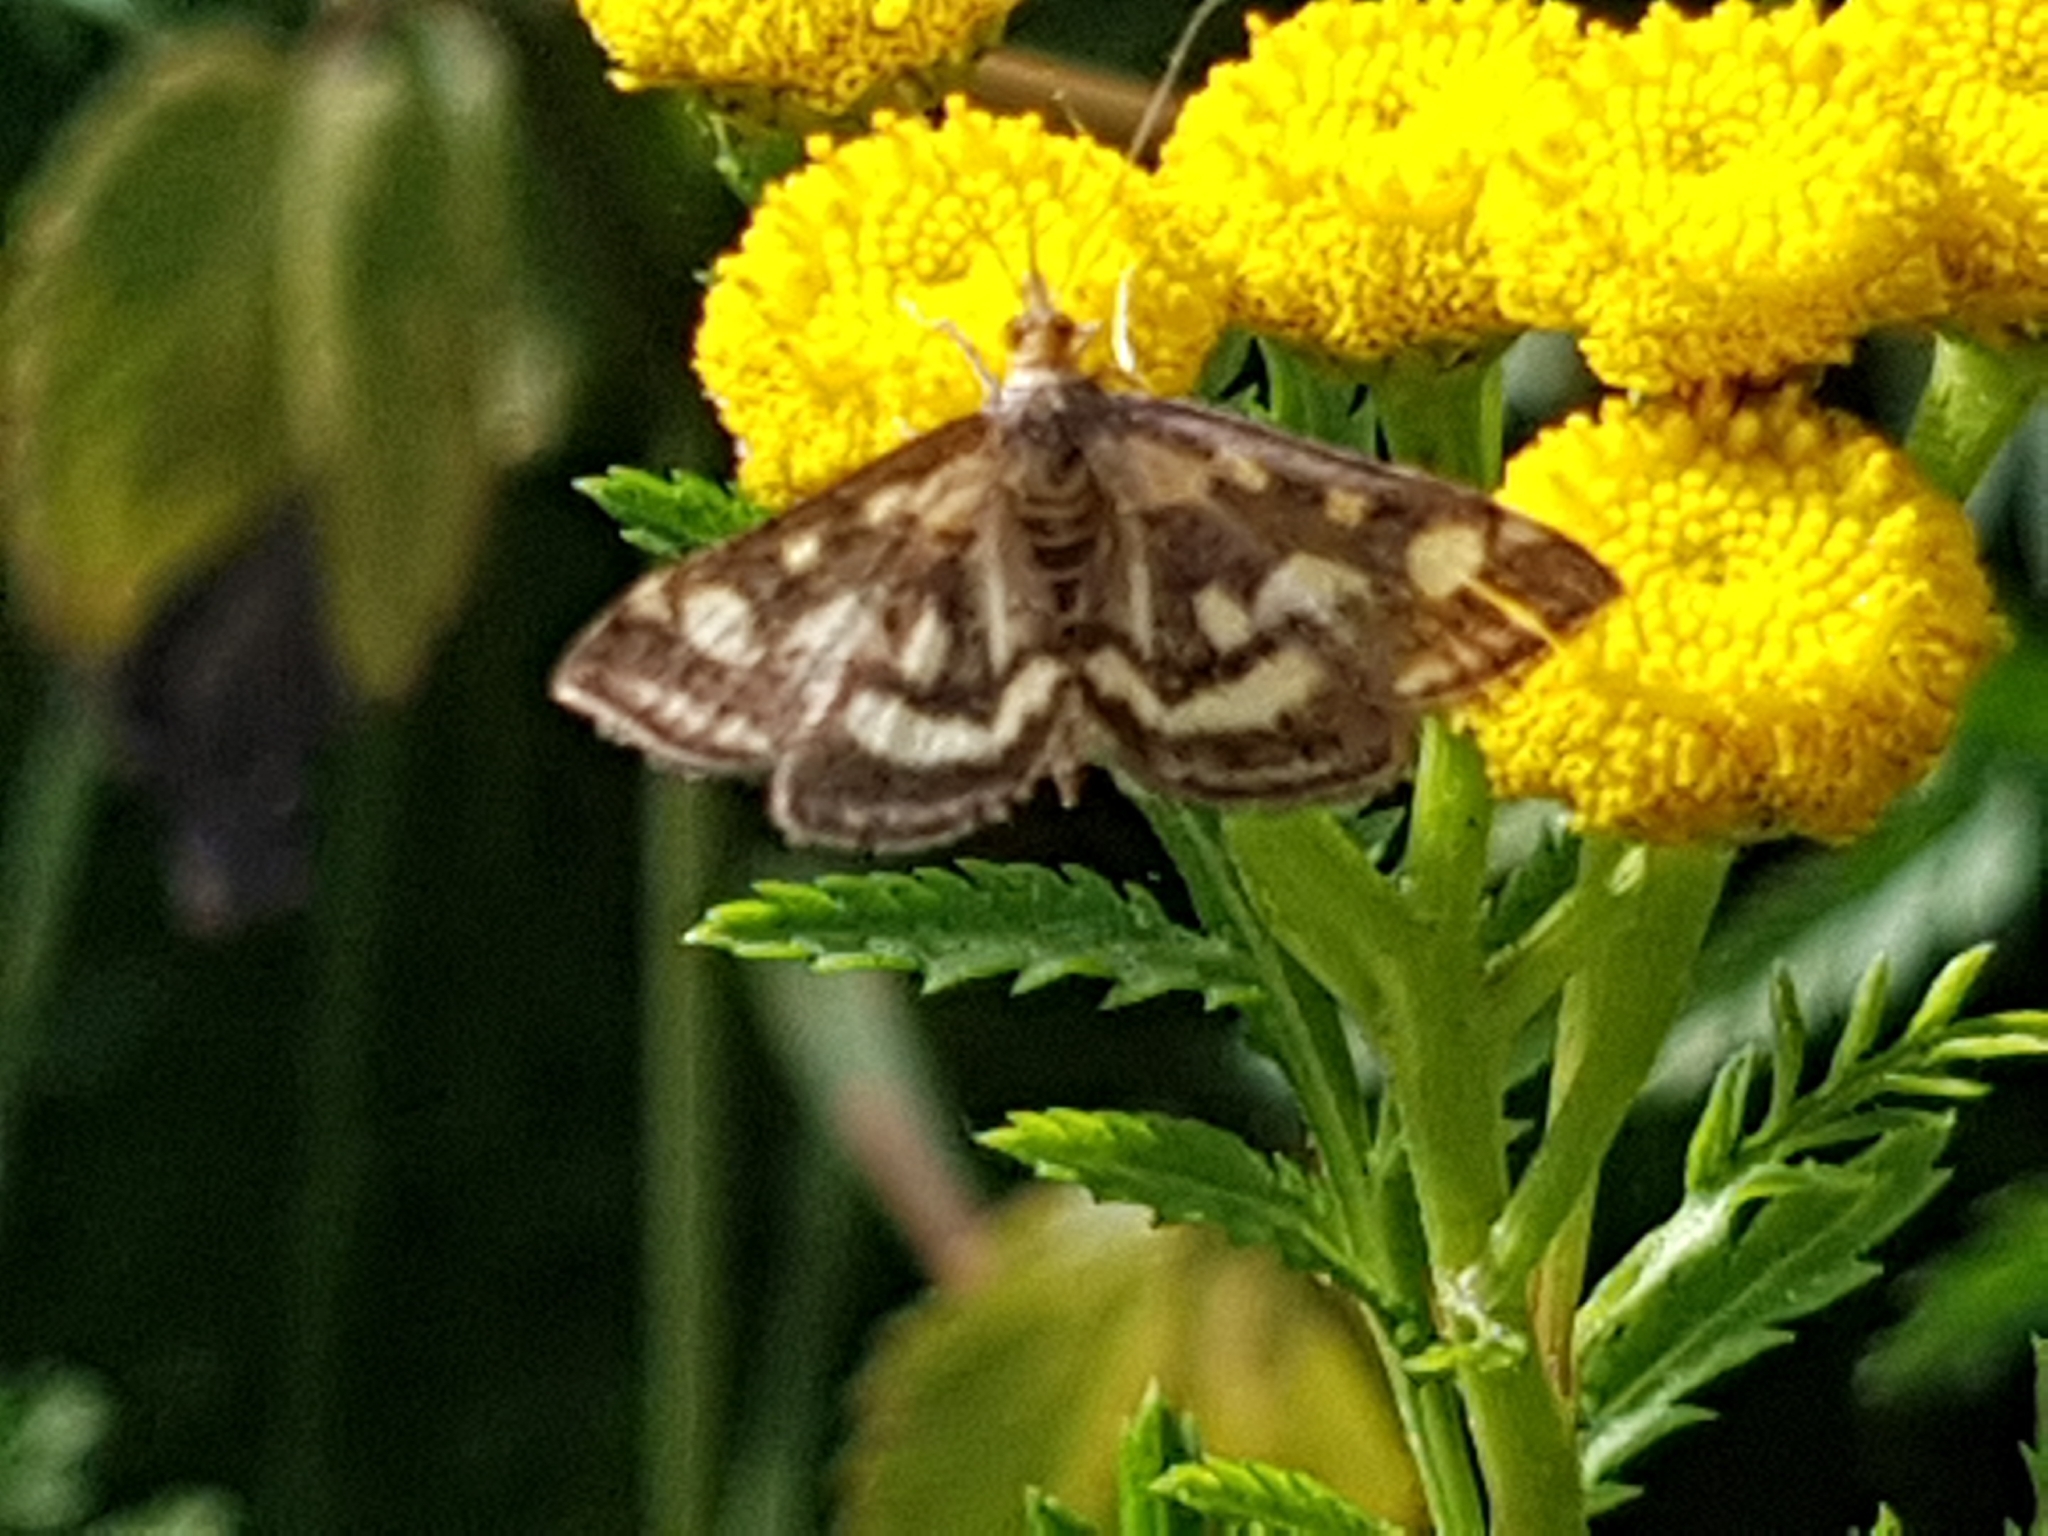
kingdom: Animalia
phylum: Arthropoda
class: Insecta
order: Lepidoptera
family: Crambidae
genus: Pyrausta
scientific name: Pyrausta purpuralis
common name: Common purple & gold
